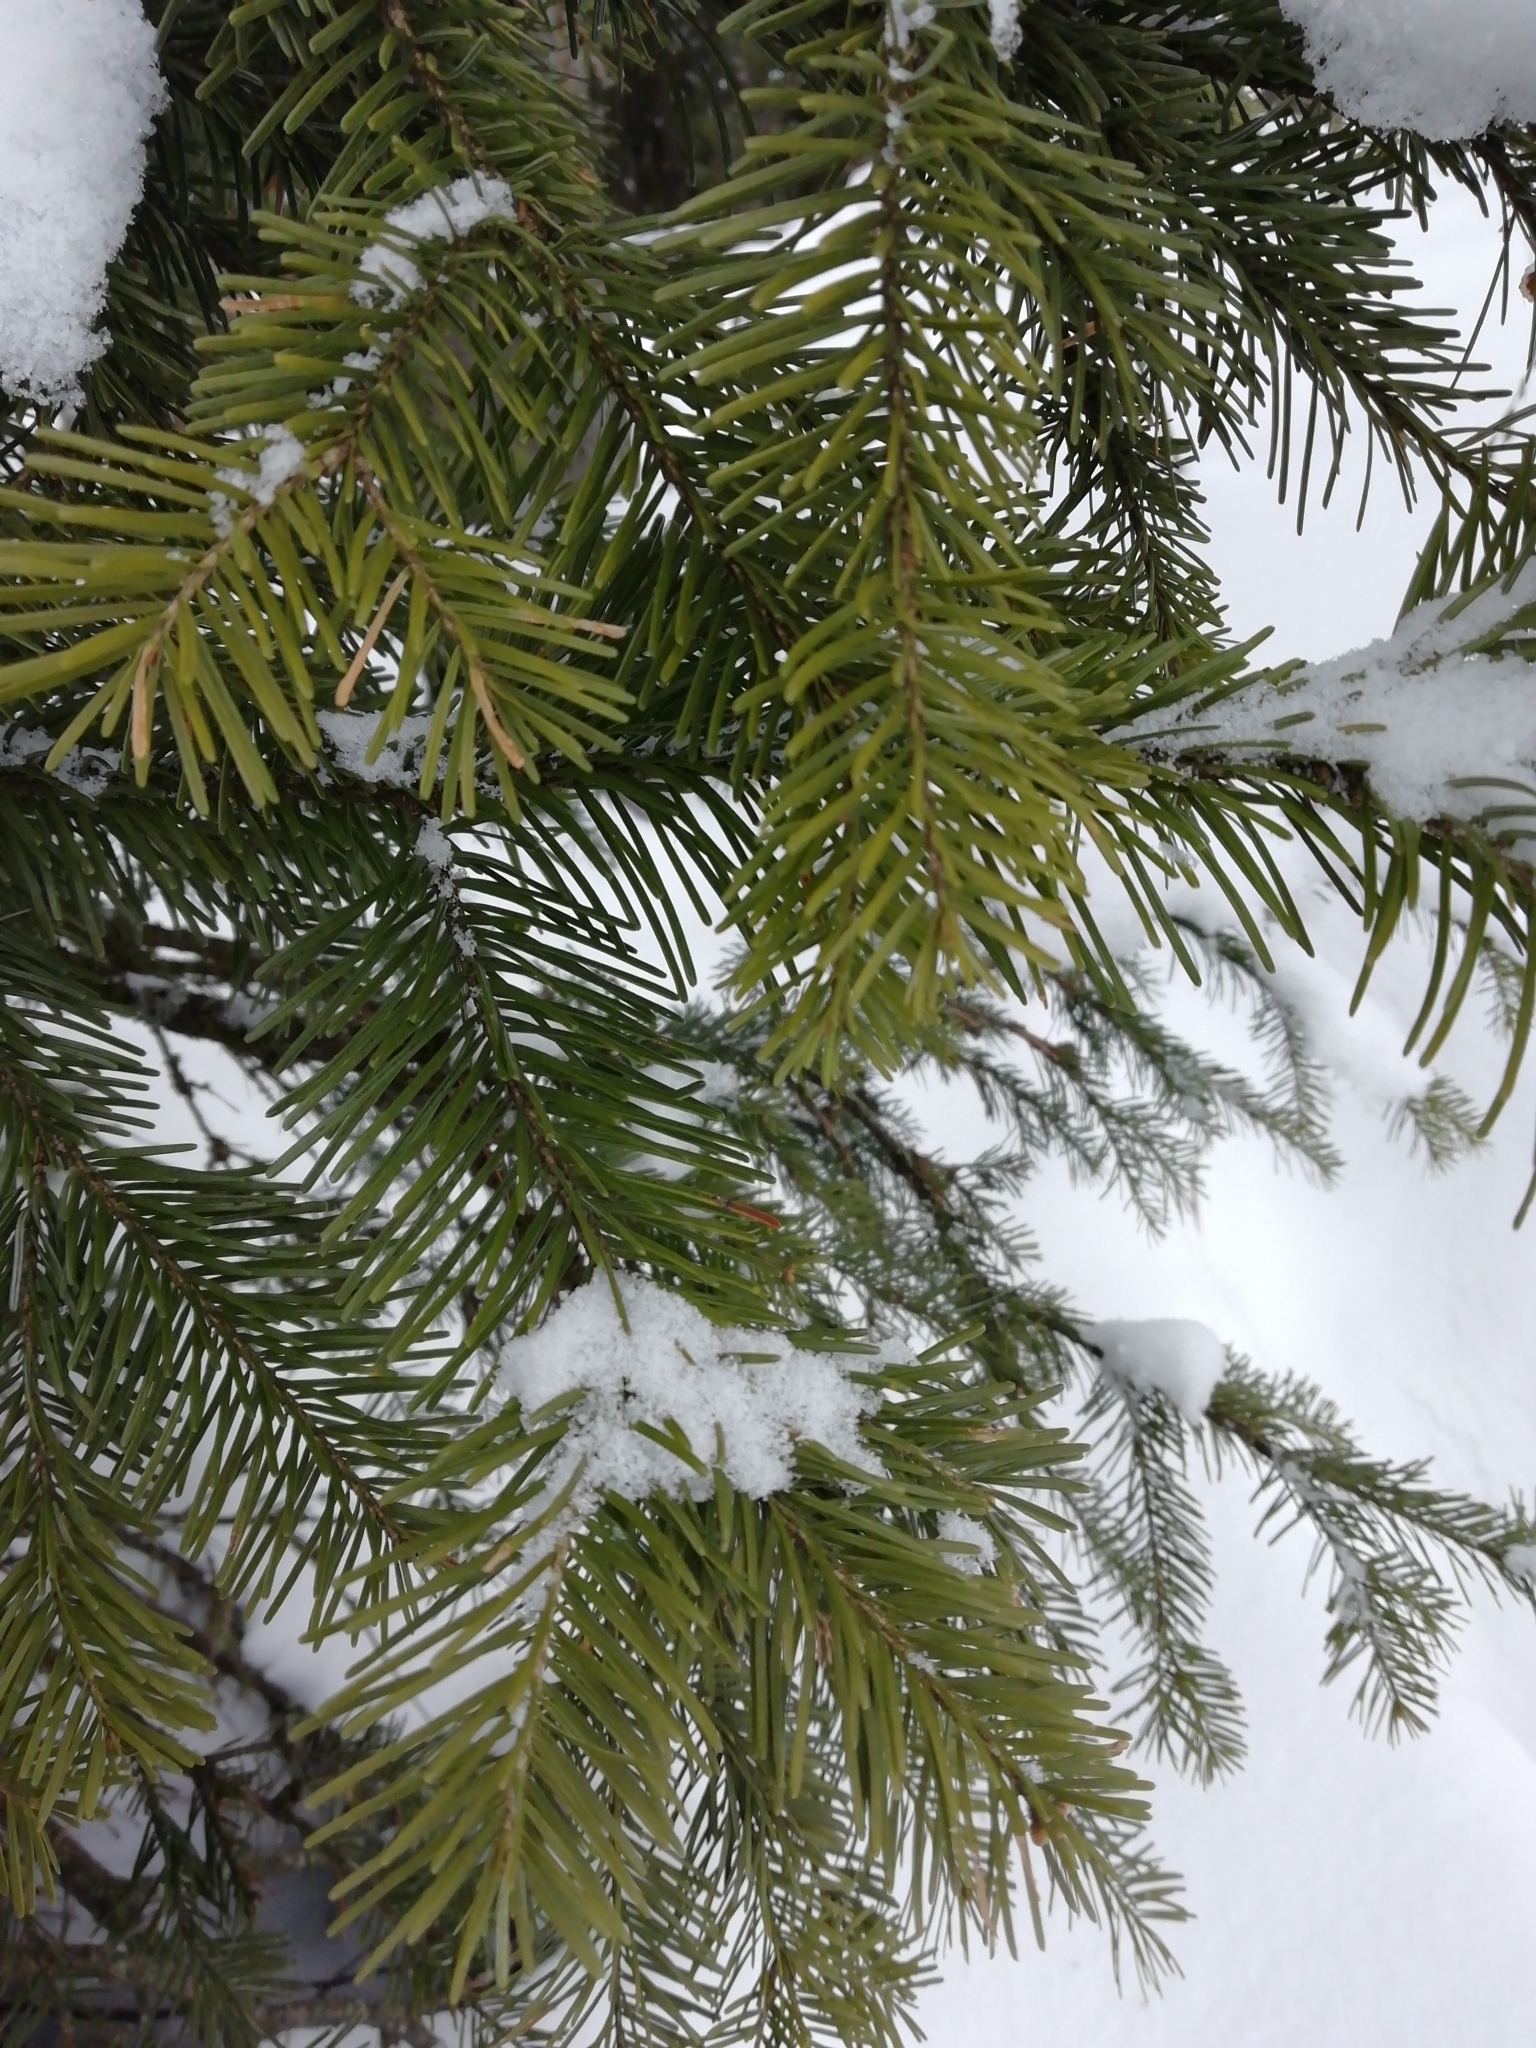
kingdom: Plantae
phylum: Tracheophyta
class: Pinopsida
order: Pinales
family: Pinaceae
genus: Abies
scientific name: Abies sibirica
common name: Siberian fir
